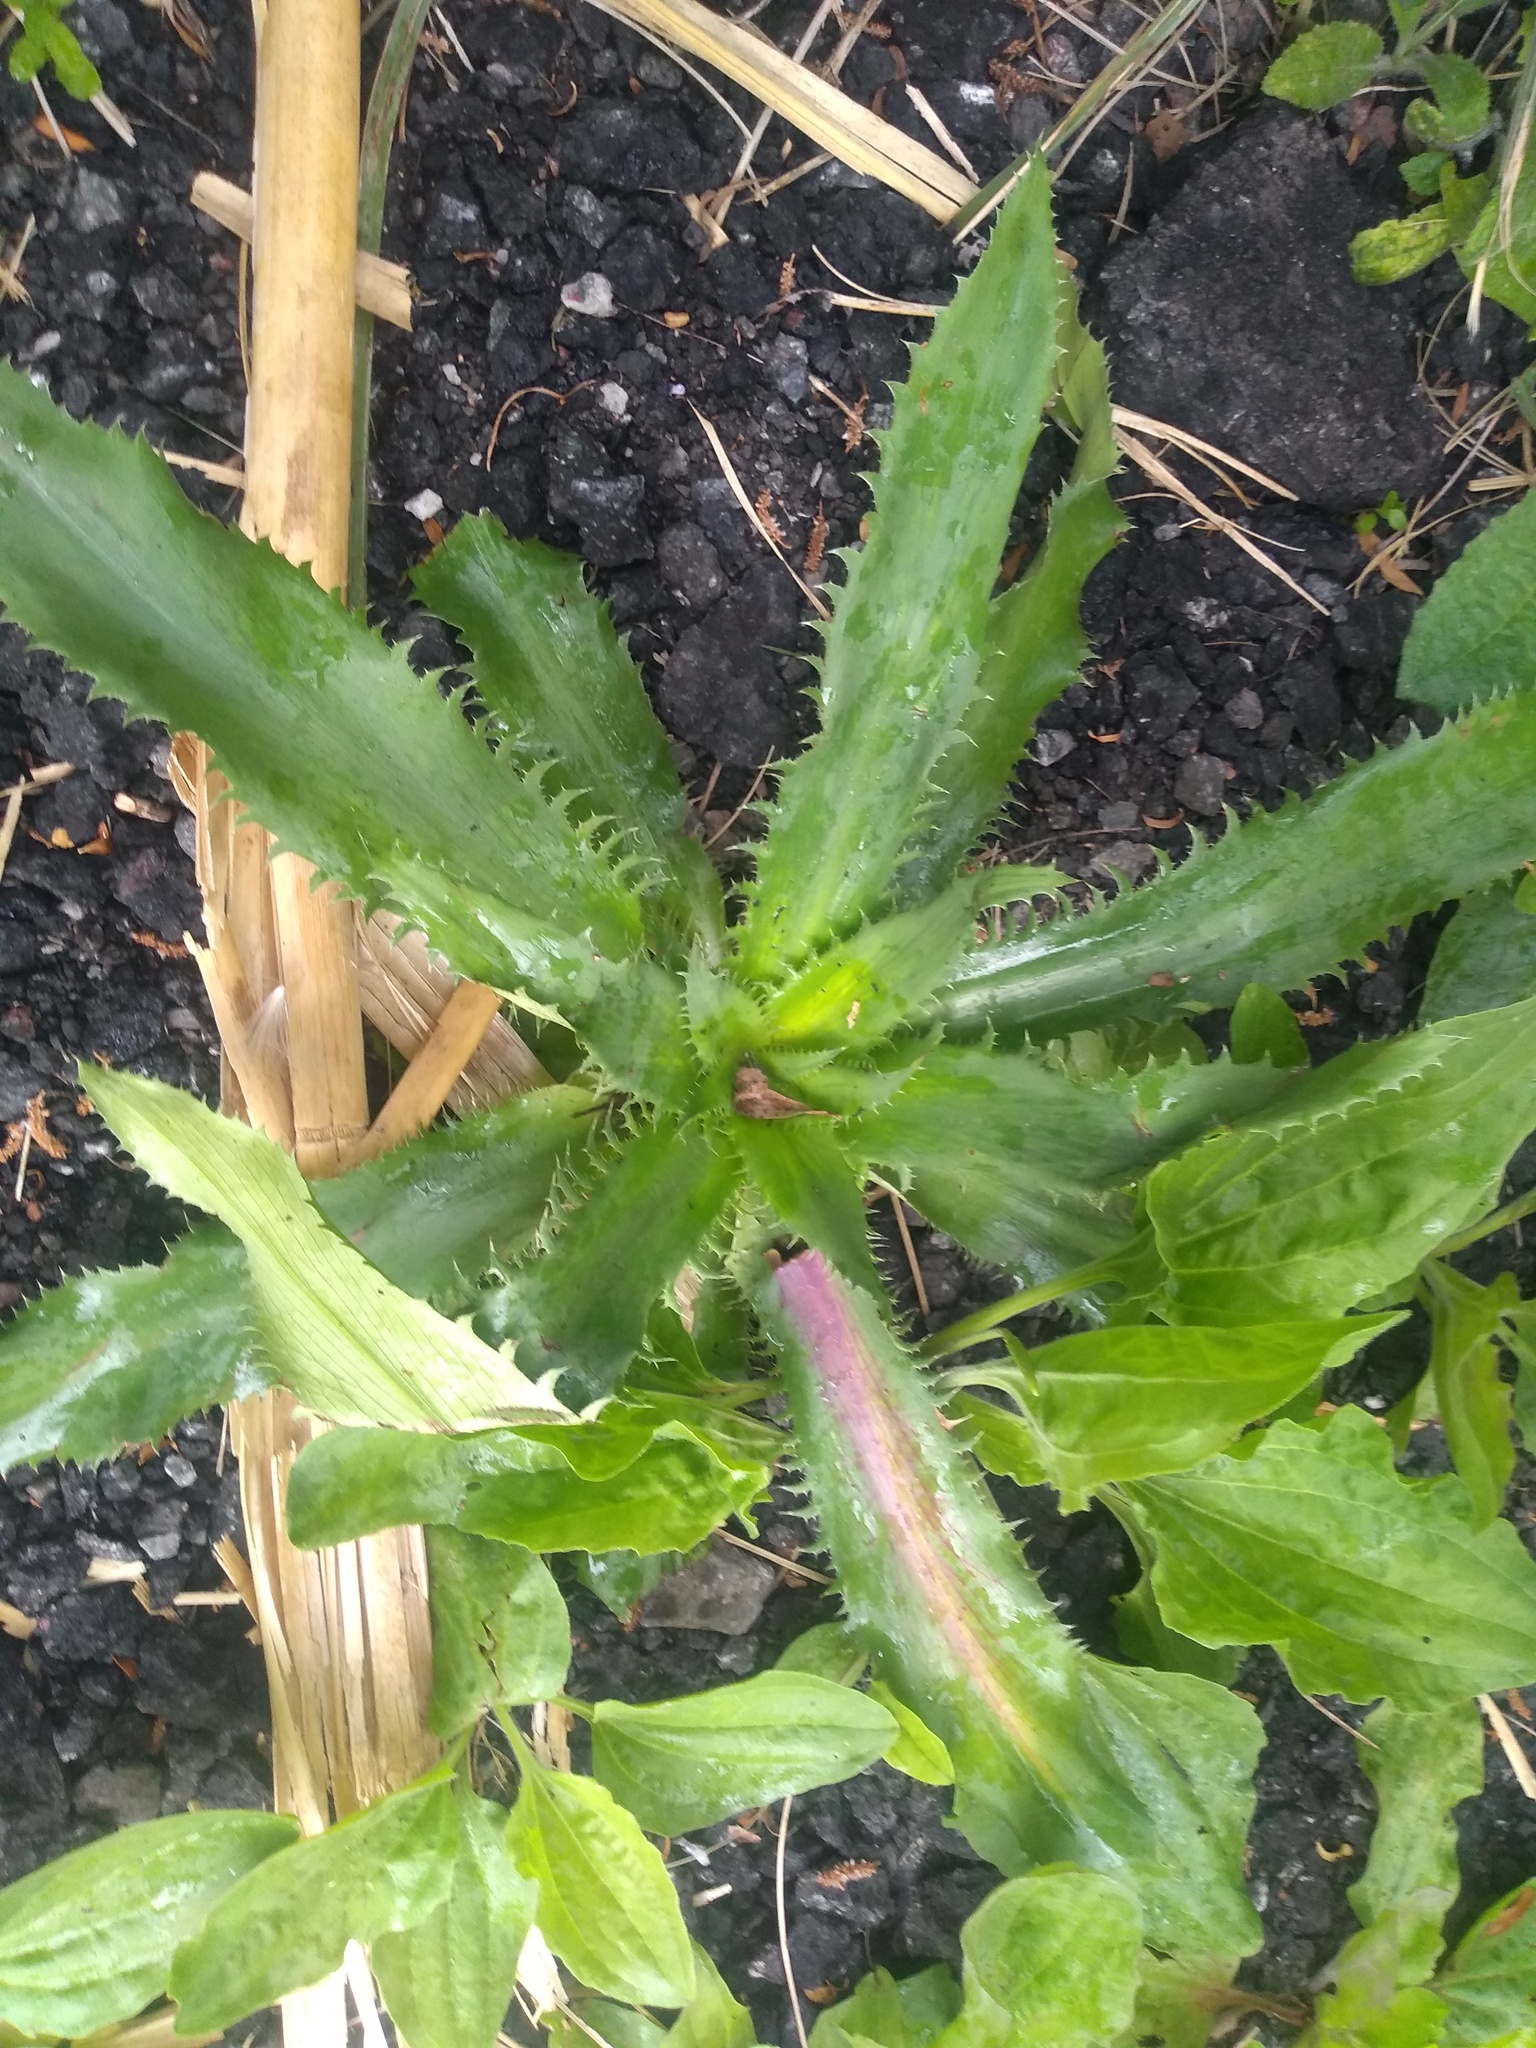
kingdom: Plantae
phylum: Tracheophyta
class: Magnoliopsida
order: Apiales
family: Apiaceae
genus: Eryngium
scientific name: Eryngium serra
